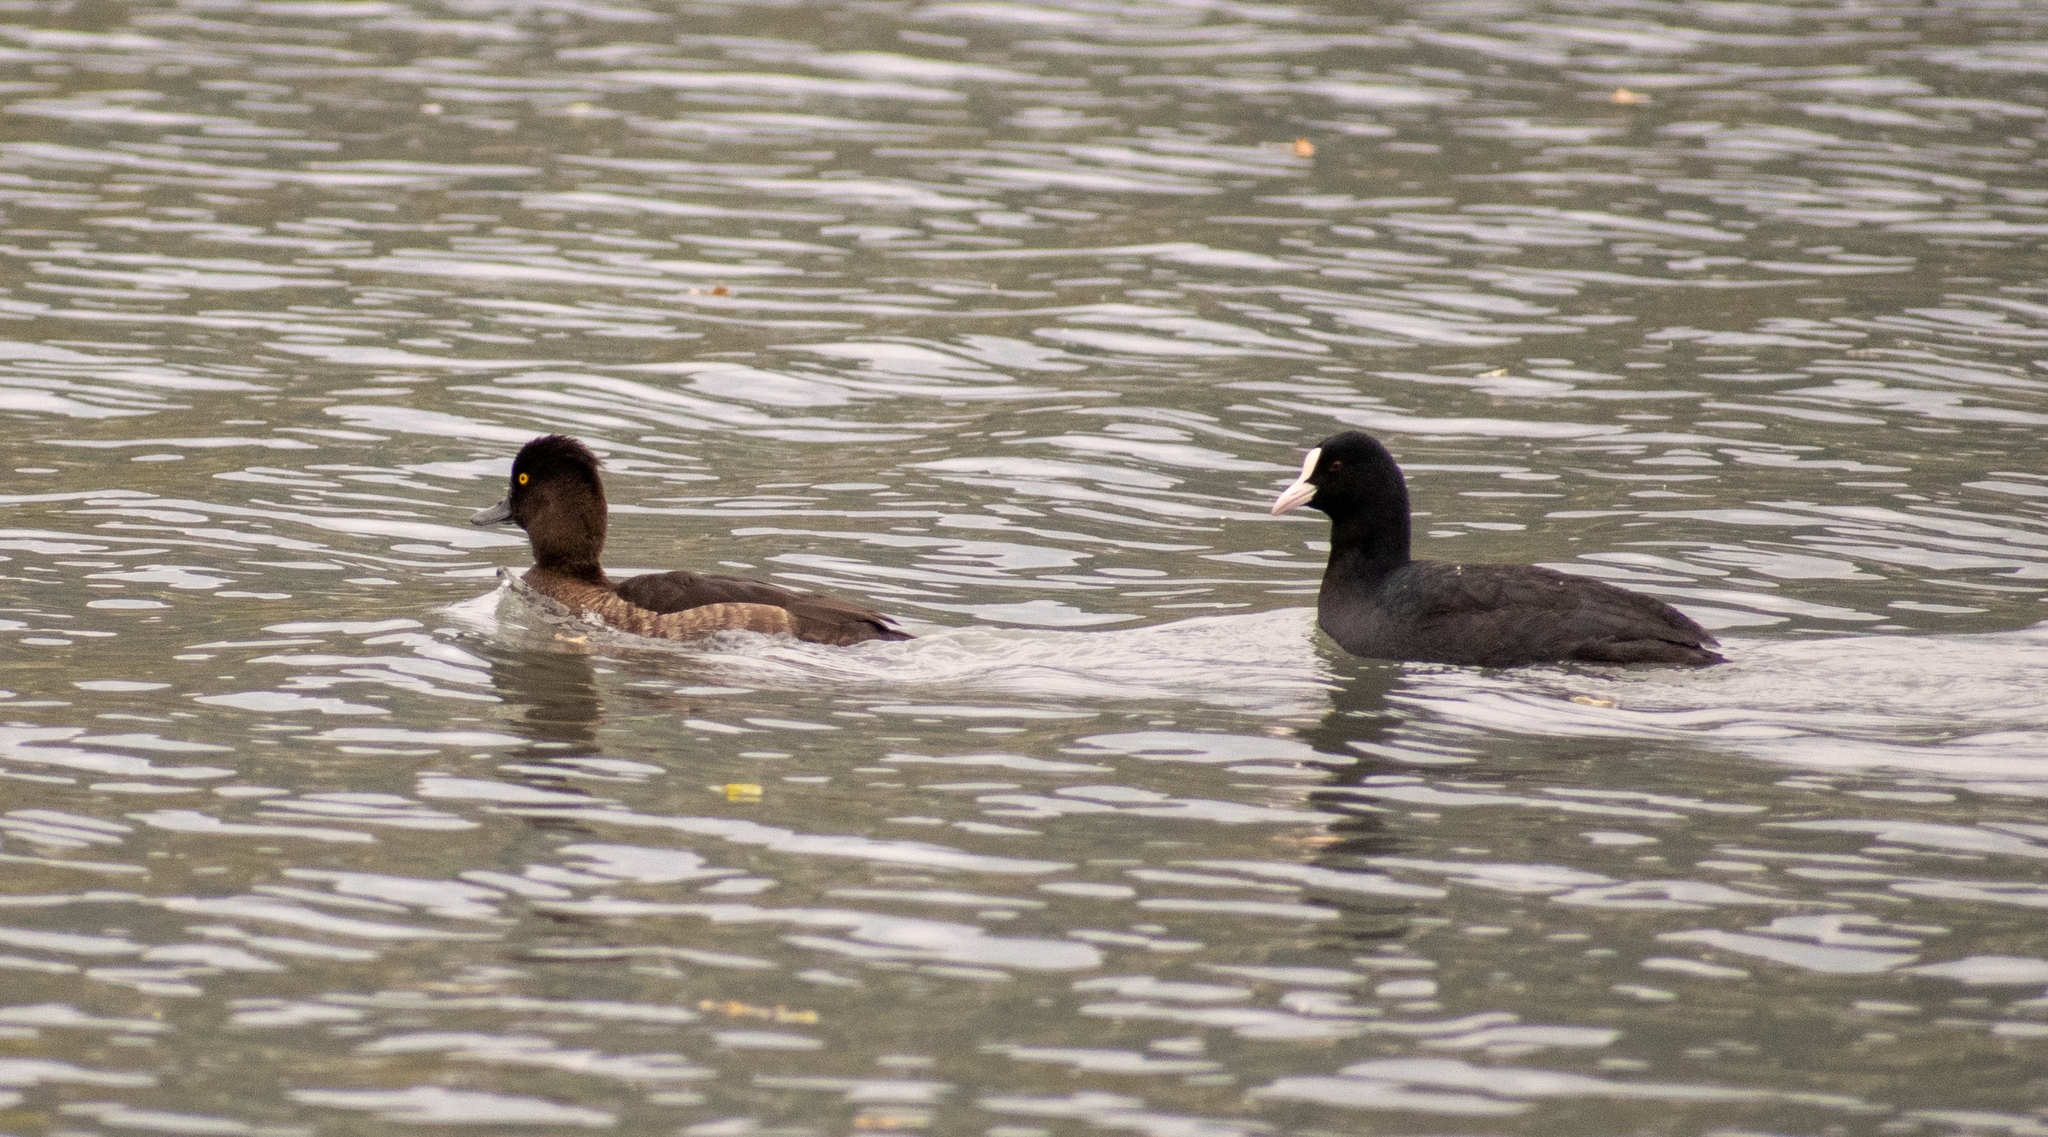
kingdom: Animalia
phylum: Chordata
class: Aves
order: Gruiformes
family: Rallidae
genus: Fulica
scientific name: Fulica atra
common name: Eurasian coot
